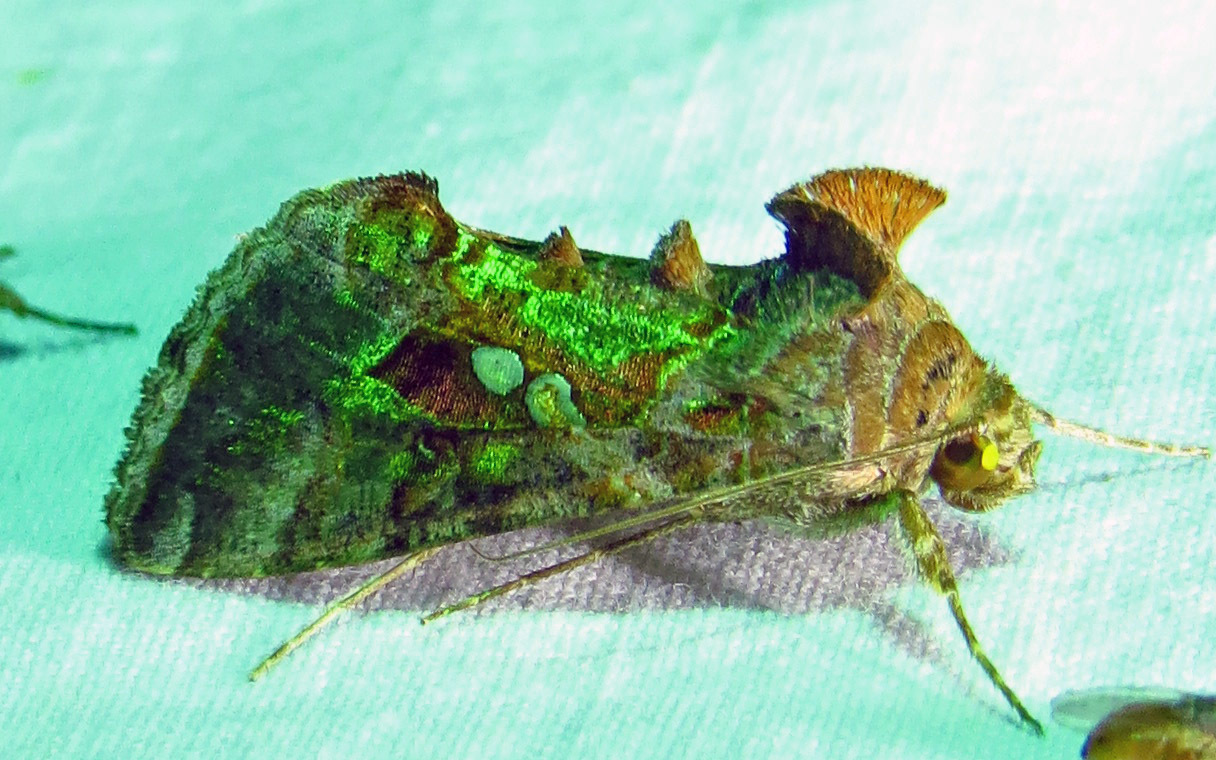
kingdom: Animalia
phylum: Arthropoda
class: Insecta
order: Lepidoptera
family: Noctuidae
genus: Chrysodeixis
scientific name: Chrysodeixis includens
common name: Cutworm moth
